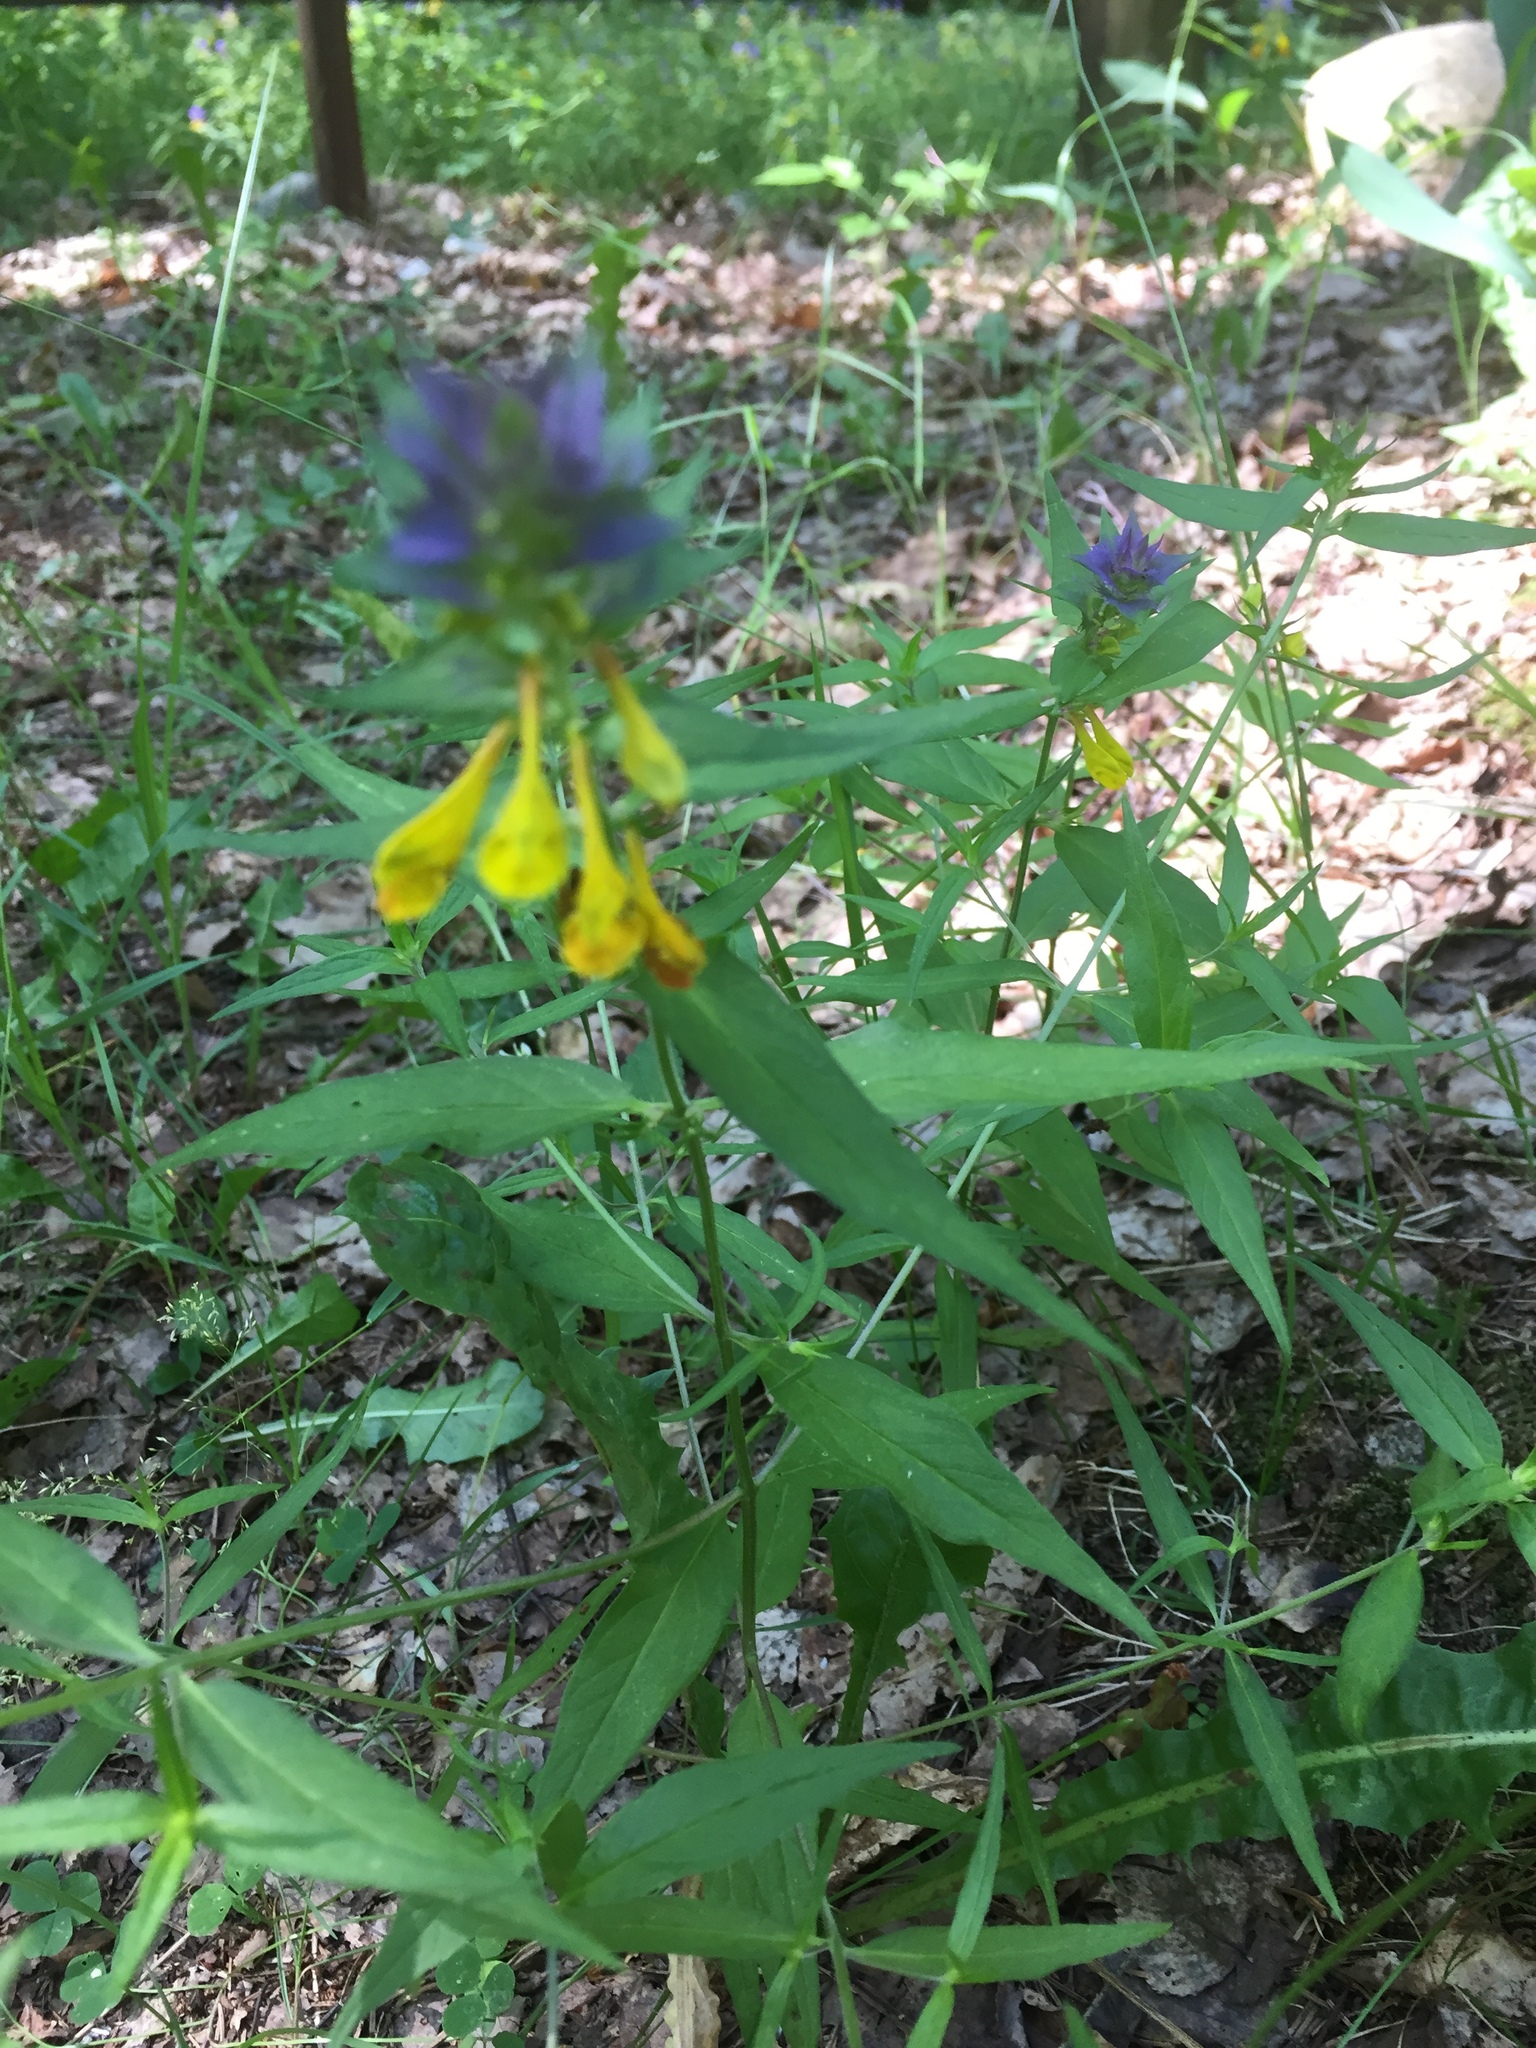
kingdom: Plantae
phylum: Tracheophyta
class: Magnoliopsida
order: Lamiales
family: Orobanchaceae
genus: Melampyrum
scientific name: Melampyrum nemorosum
